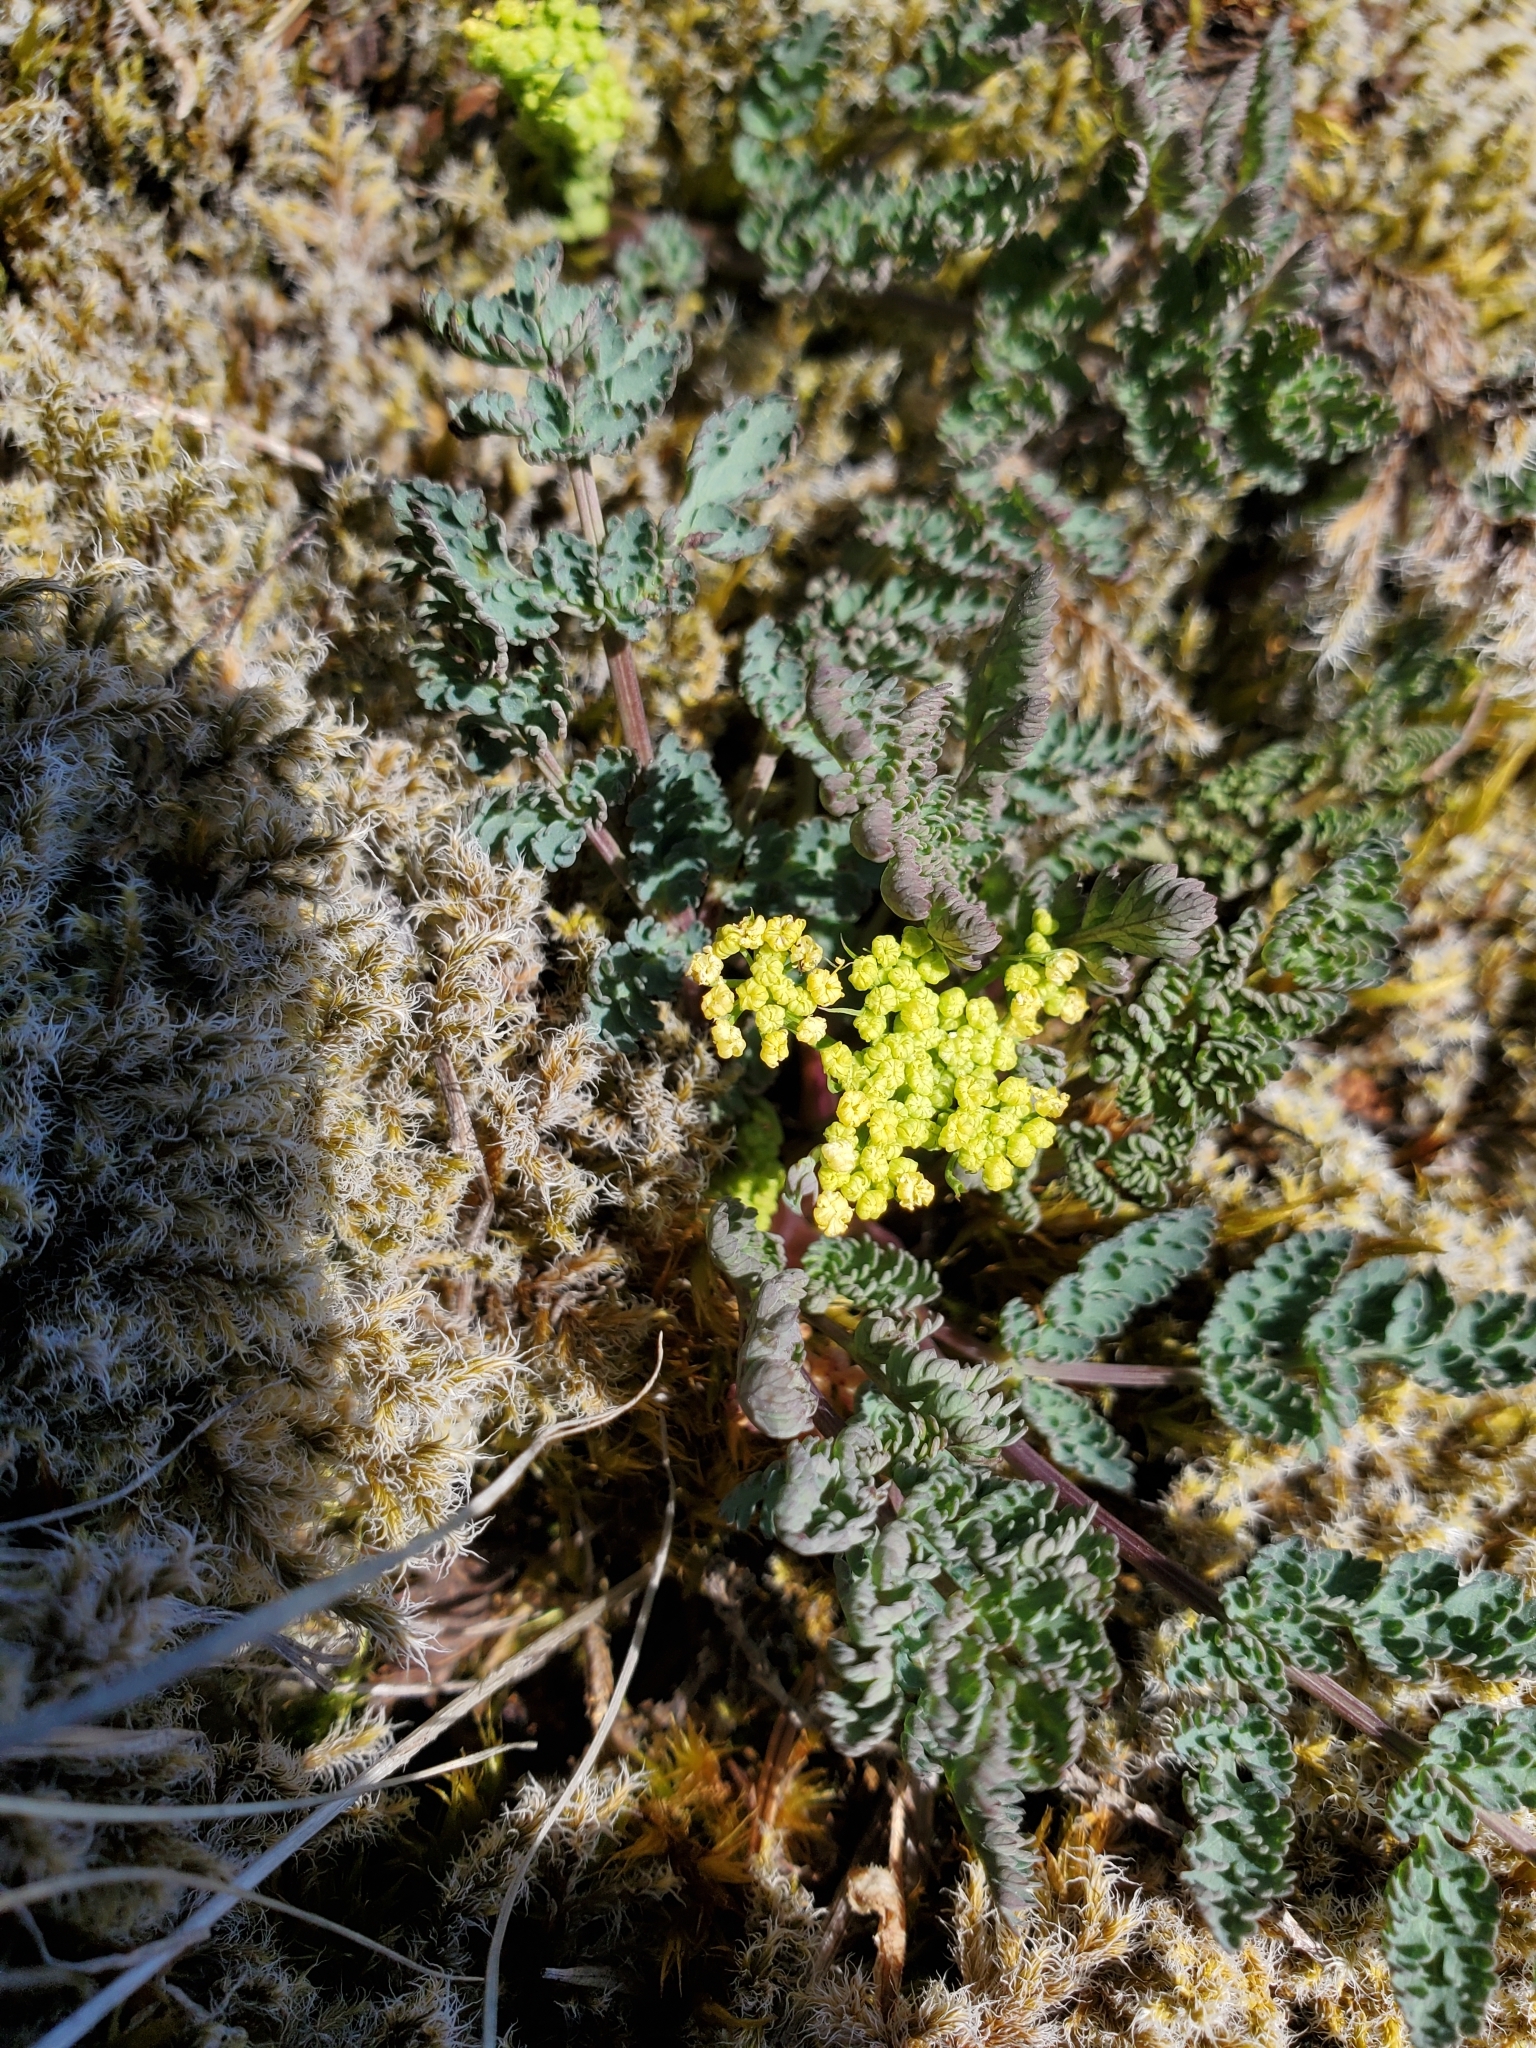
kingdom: Plantae
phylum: Tracheophyta
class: Magnoliopsida
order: Apiales
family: Apiaceae
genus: Lomatium
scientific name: Lomatium martindalei
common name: Cascade desert-parsley
